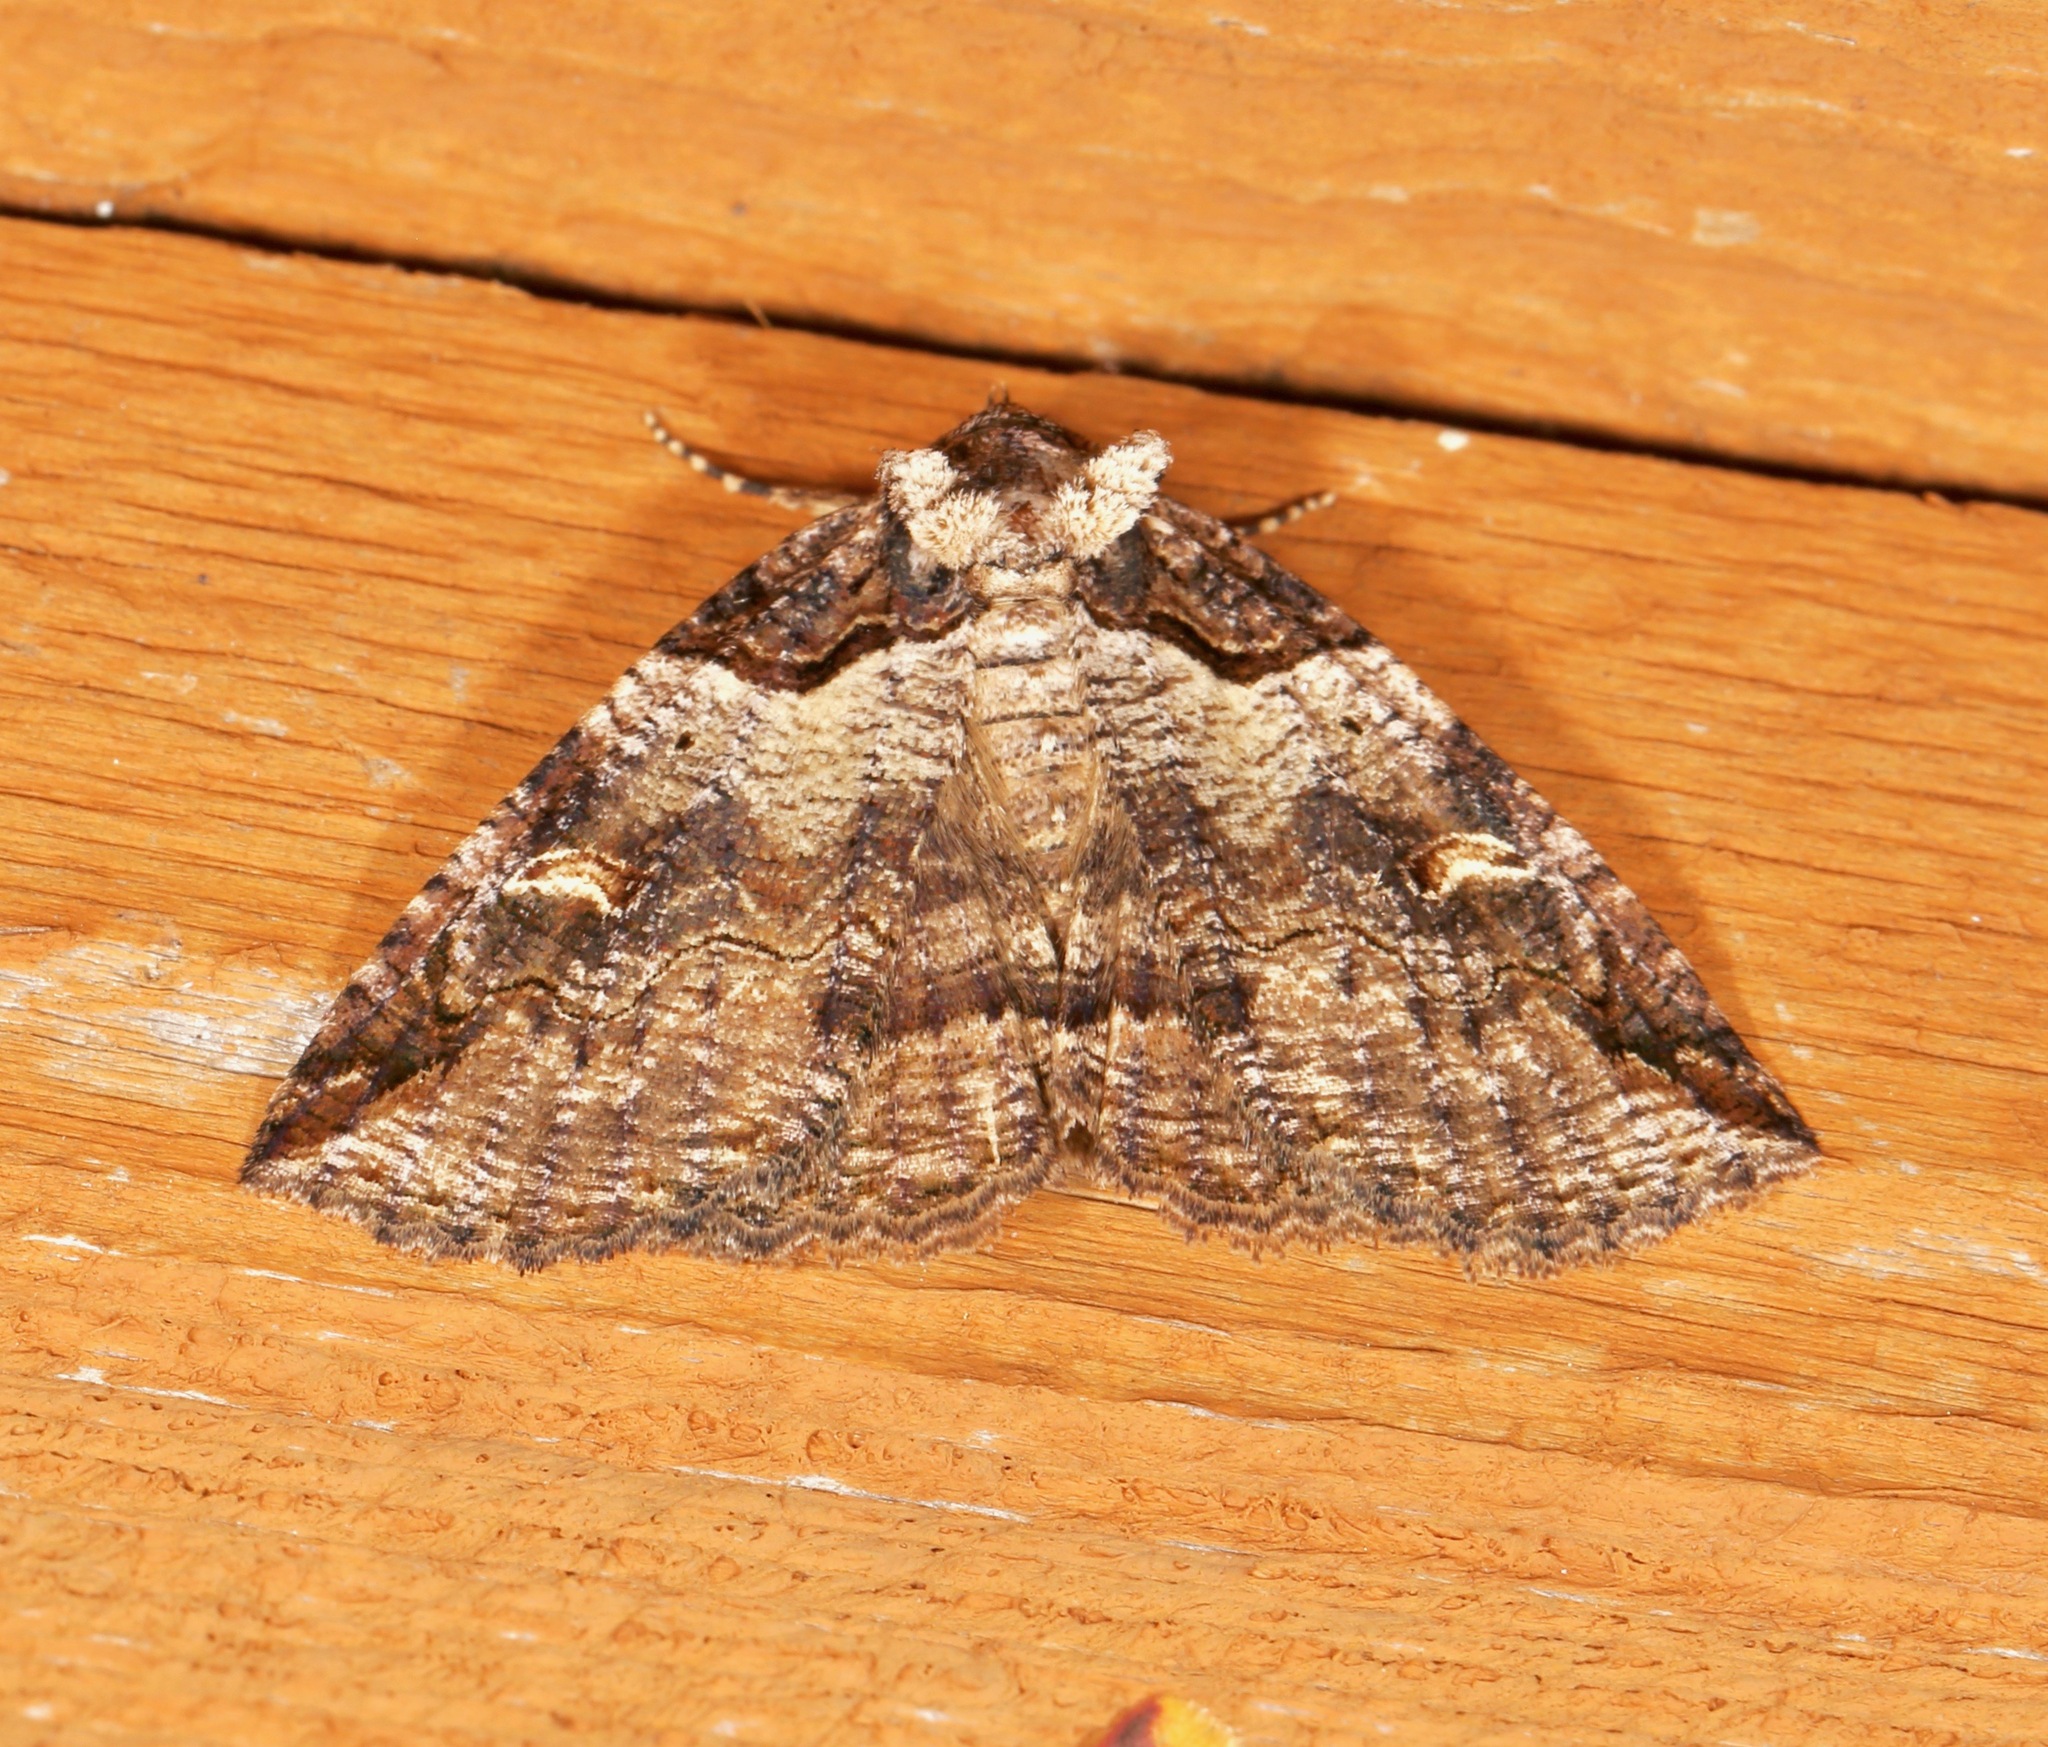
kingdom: Animalia
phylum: Arthropoda
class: Insecta
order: Lepidoptera
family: Erebidae
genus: Zale
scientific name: Zale intenta
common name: Intent zale moth
